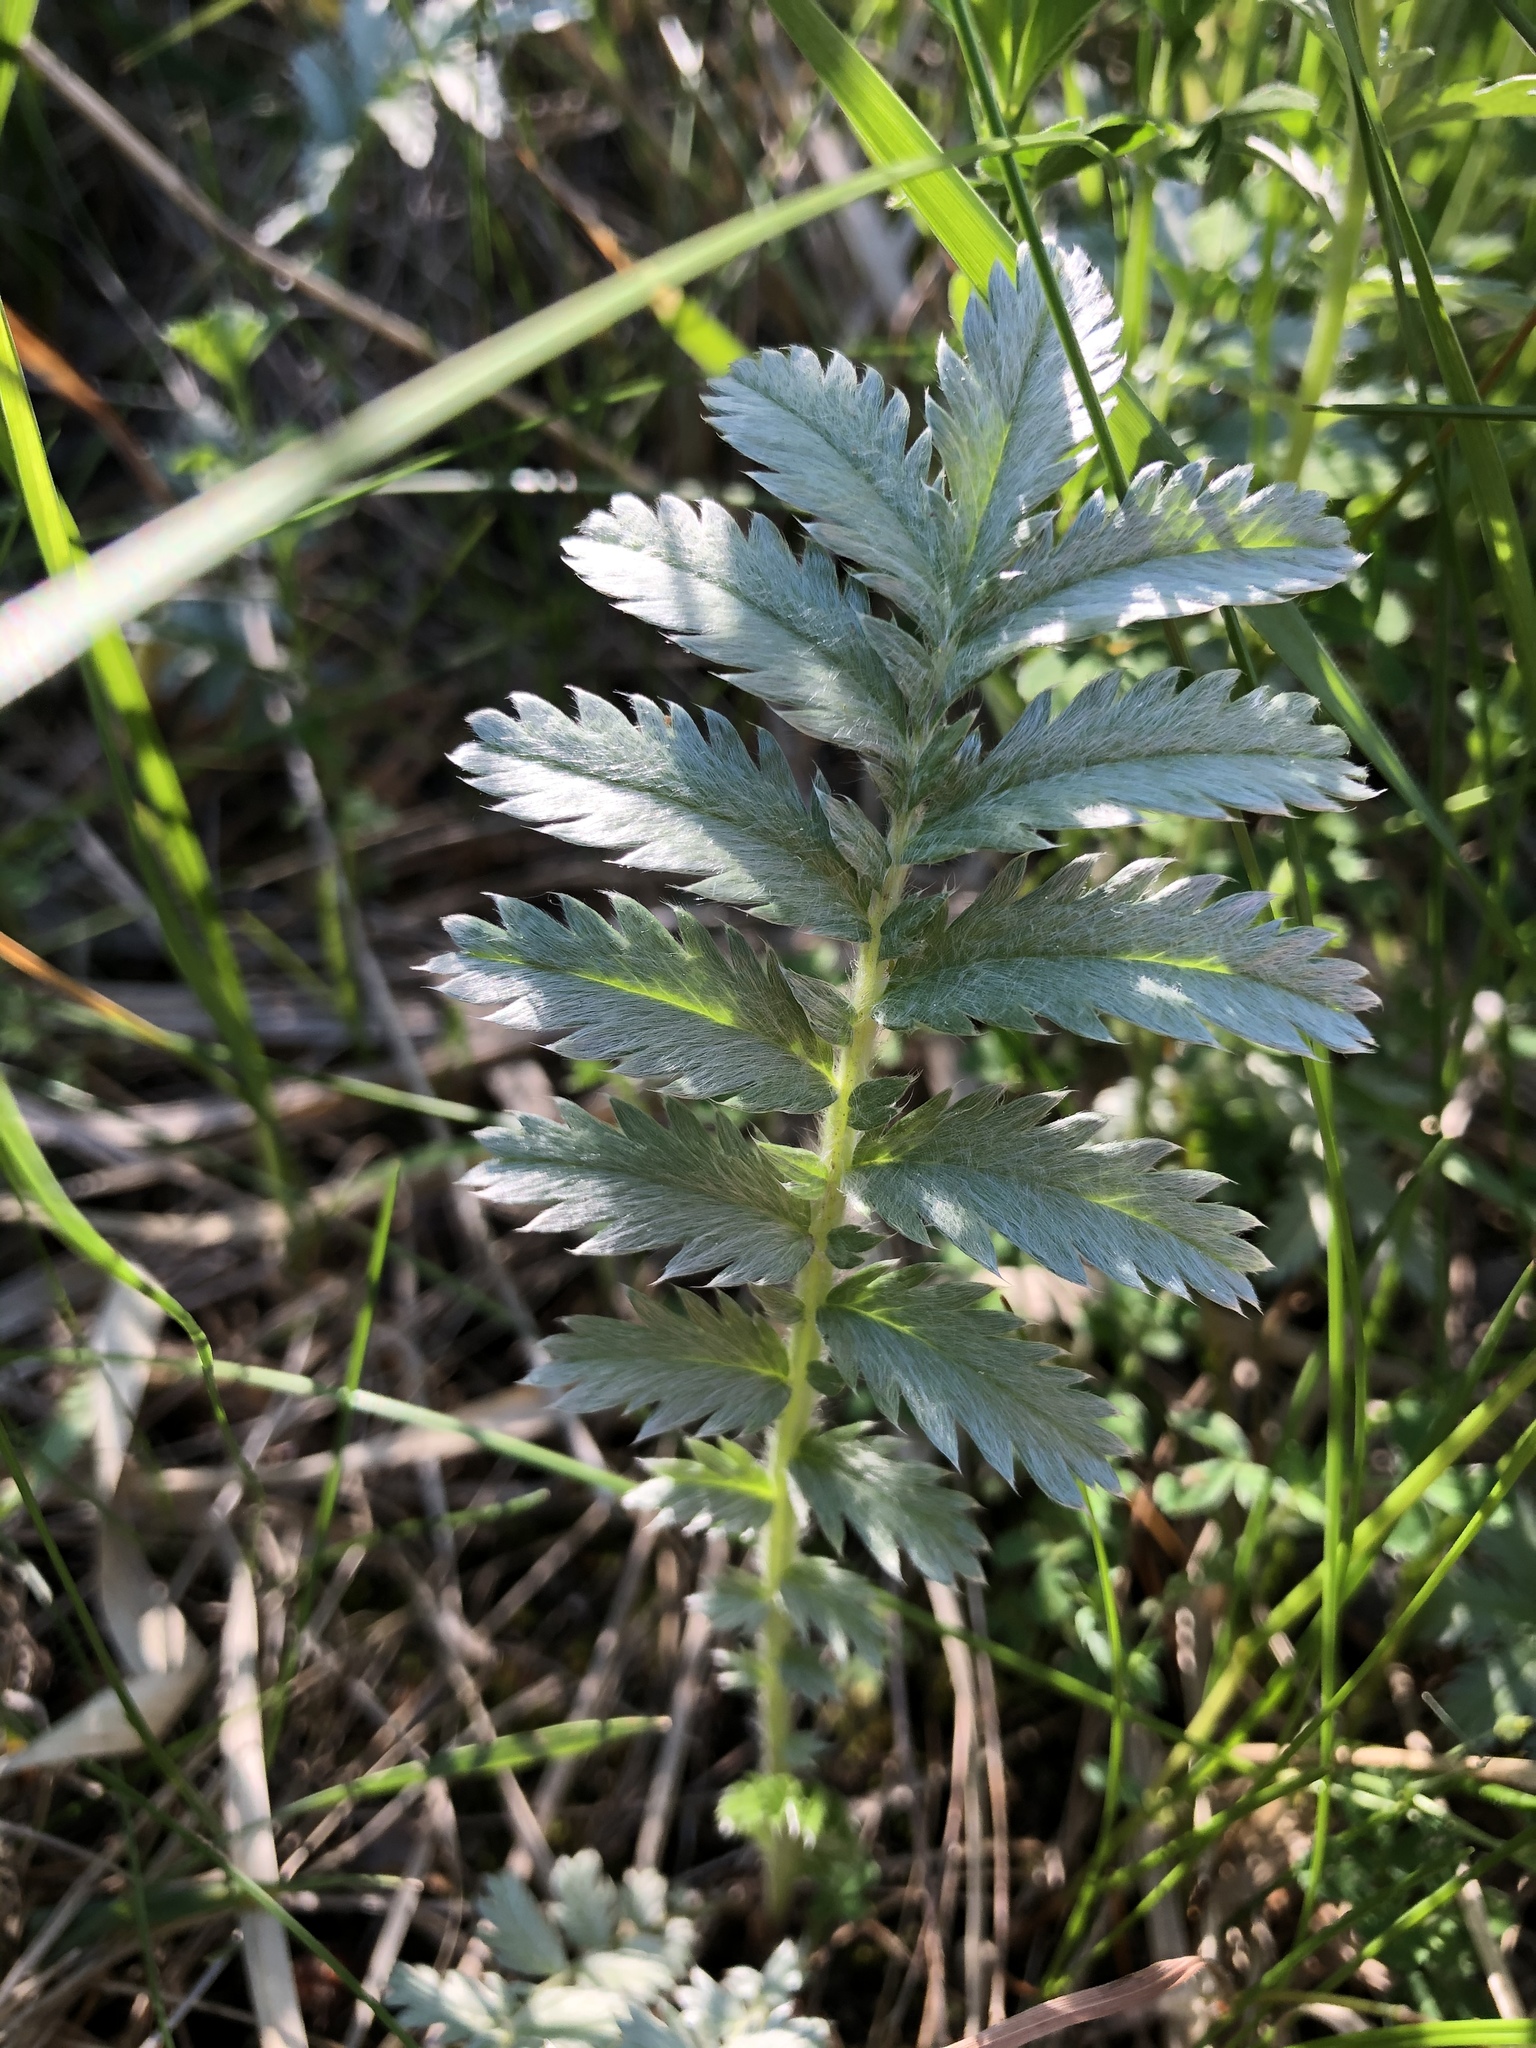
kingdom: Plantae
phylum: Tracheophyta
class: Magnoliopsida
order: Rosales
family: Rosaceae
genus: Argentina
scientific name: Argentina anserina
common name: Common silverweed
